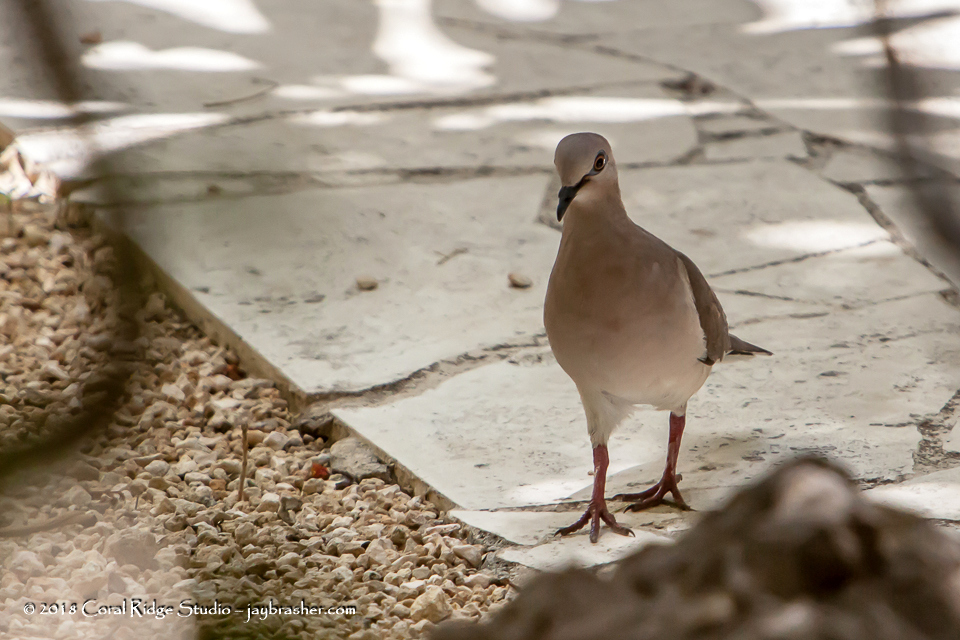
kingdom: Animalia
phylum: Chordata
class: Aves
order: Columbiformes
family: Columbidae
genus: Leptotila
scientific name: Leptotila verreauxi
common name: White-tipped dove
